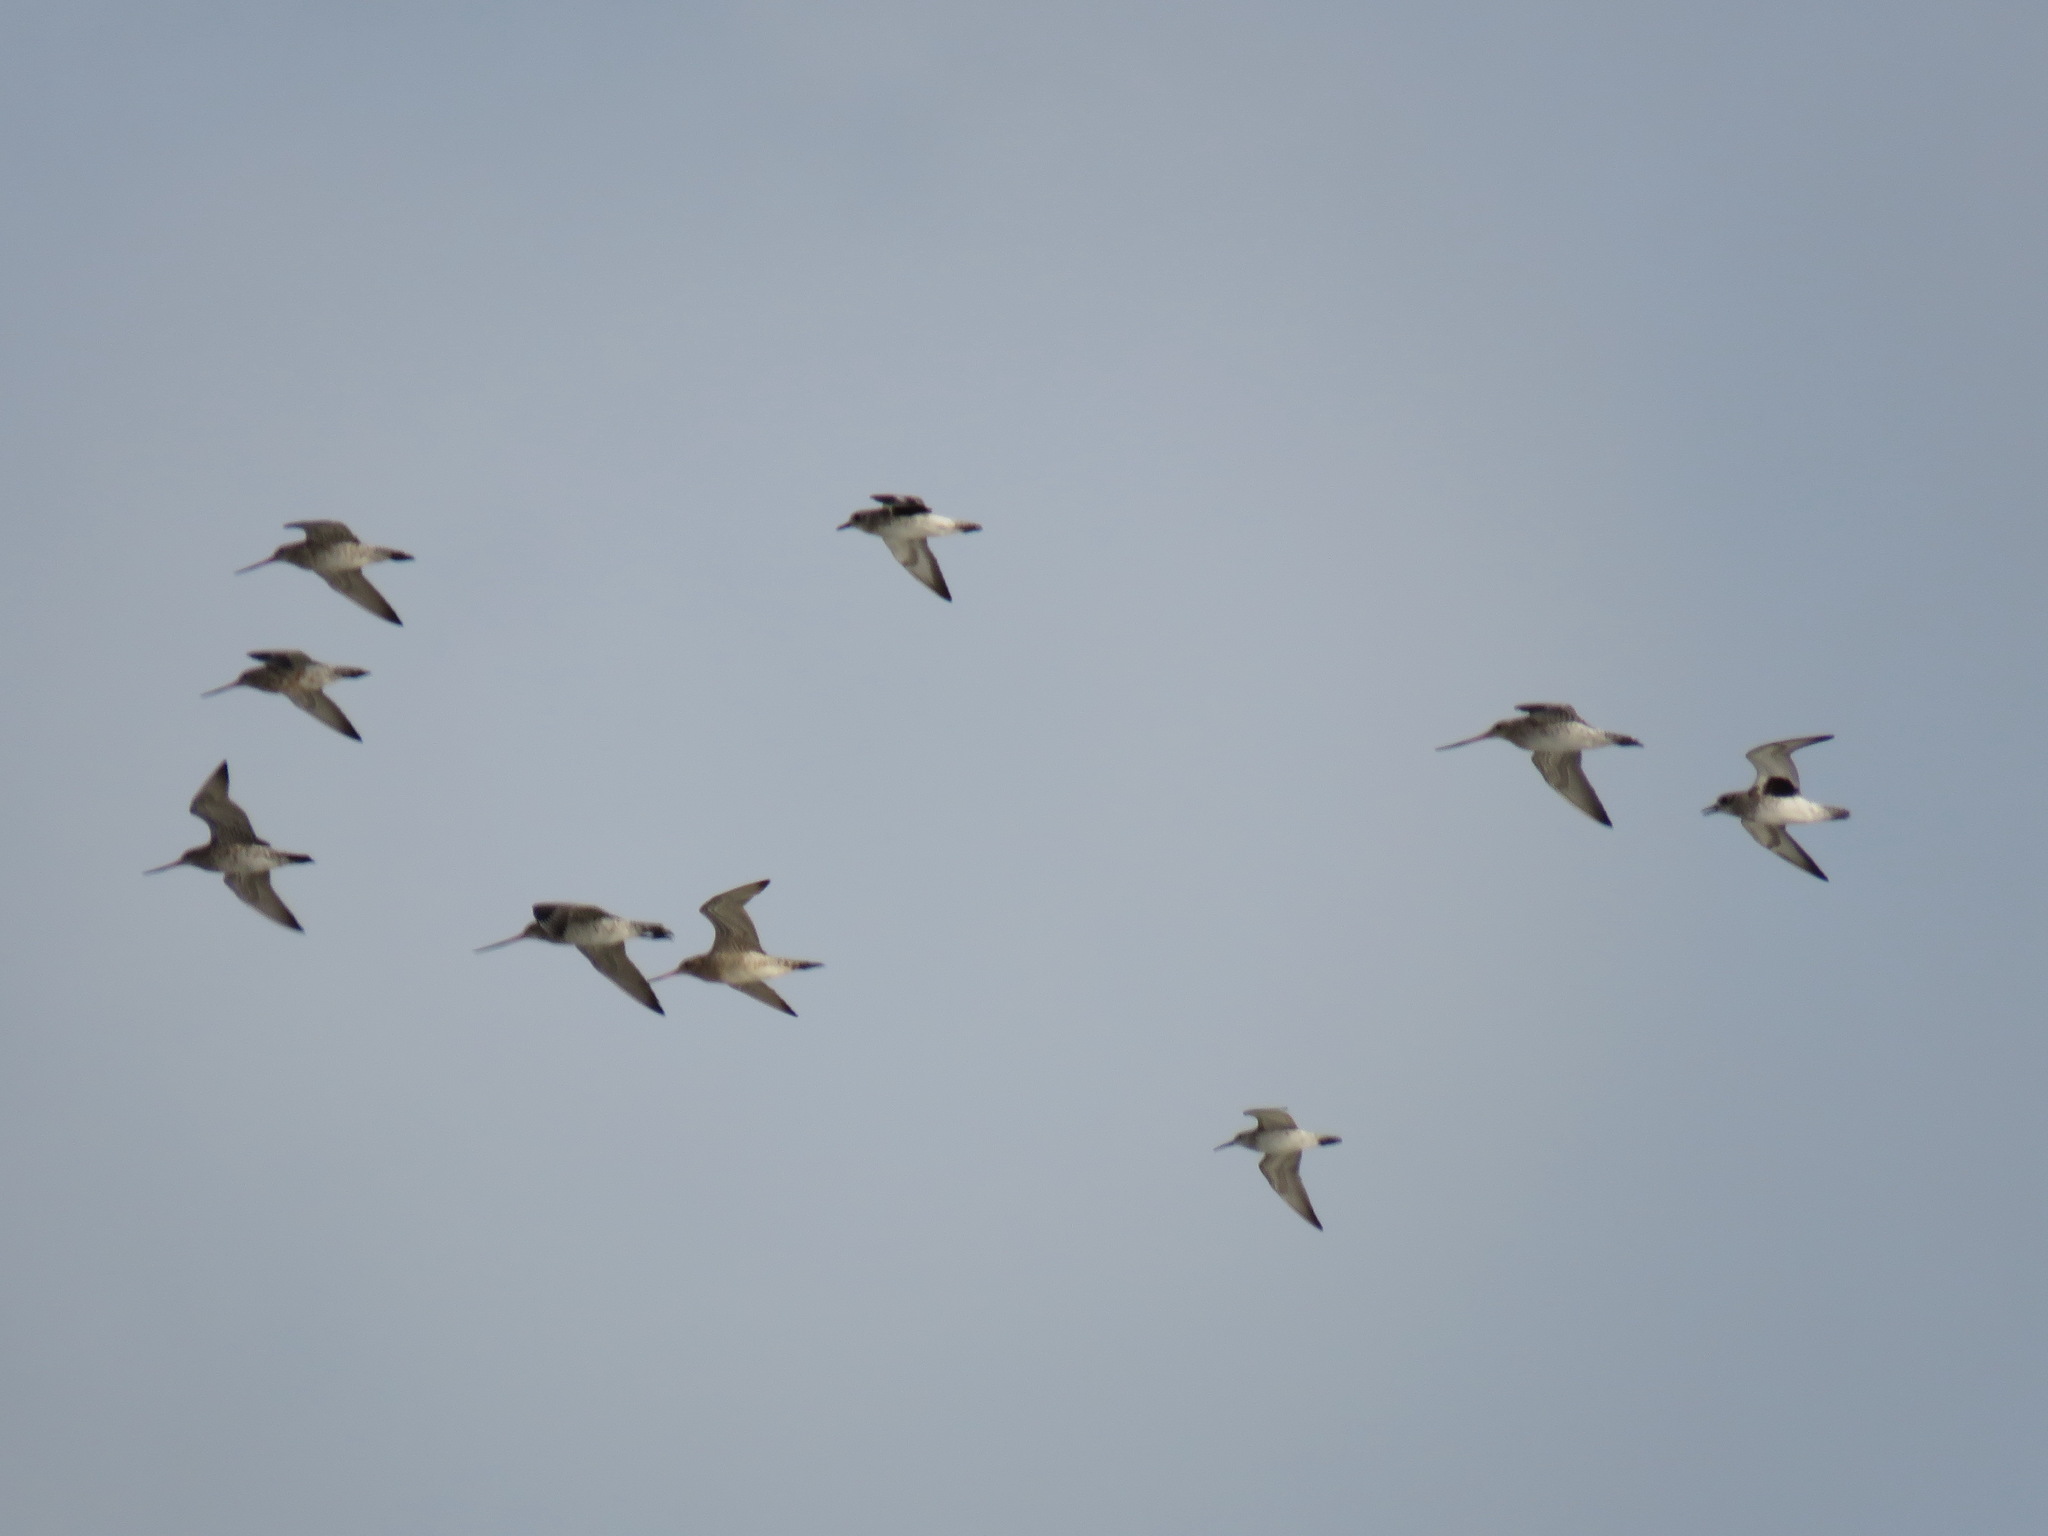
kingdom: Animalia
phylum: Chordata
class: Aves
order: Charadriiformes
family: Charadriidae
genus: Pluvialis
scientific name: Pluvialis squatarola
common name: Grey plover
